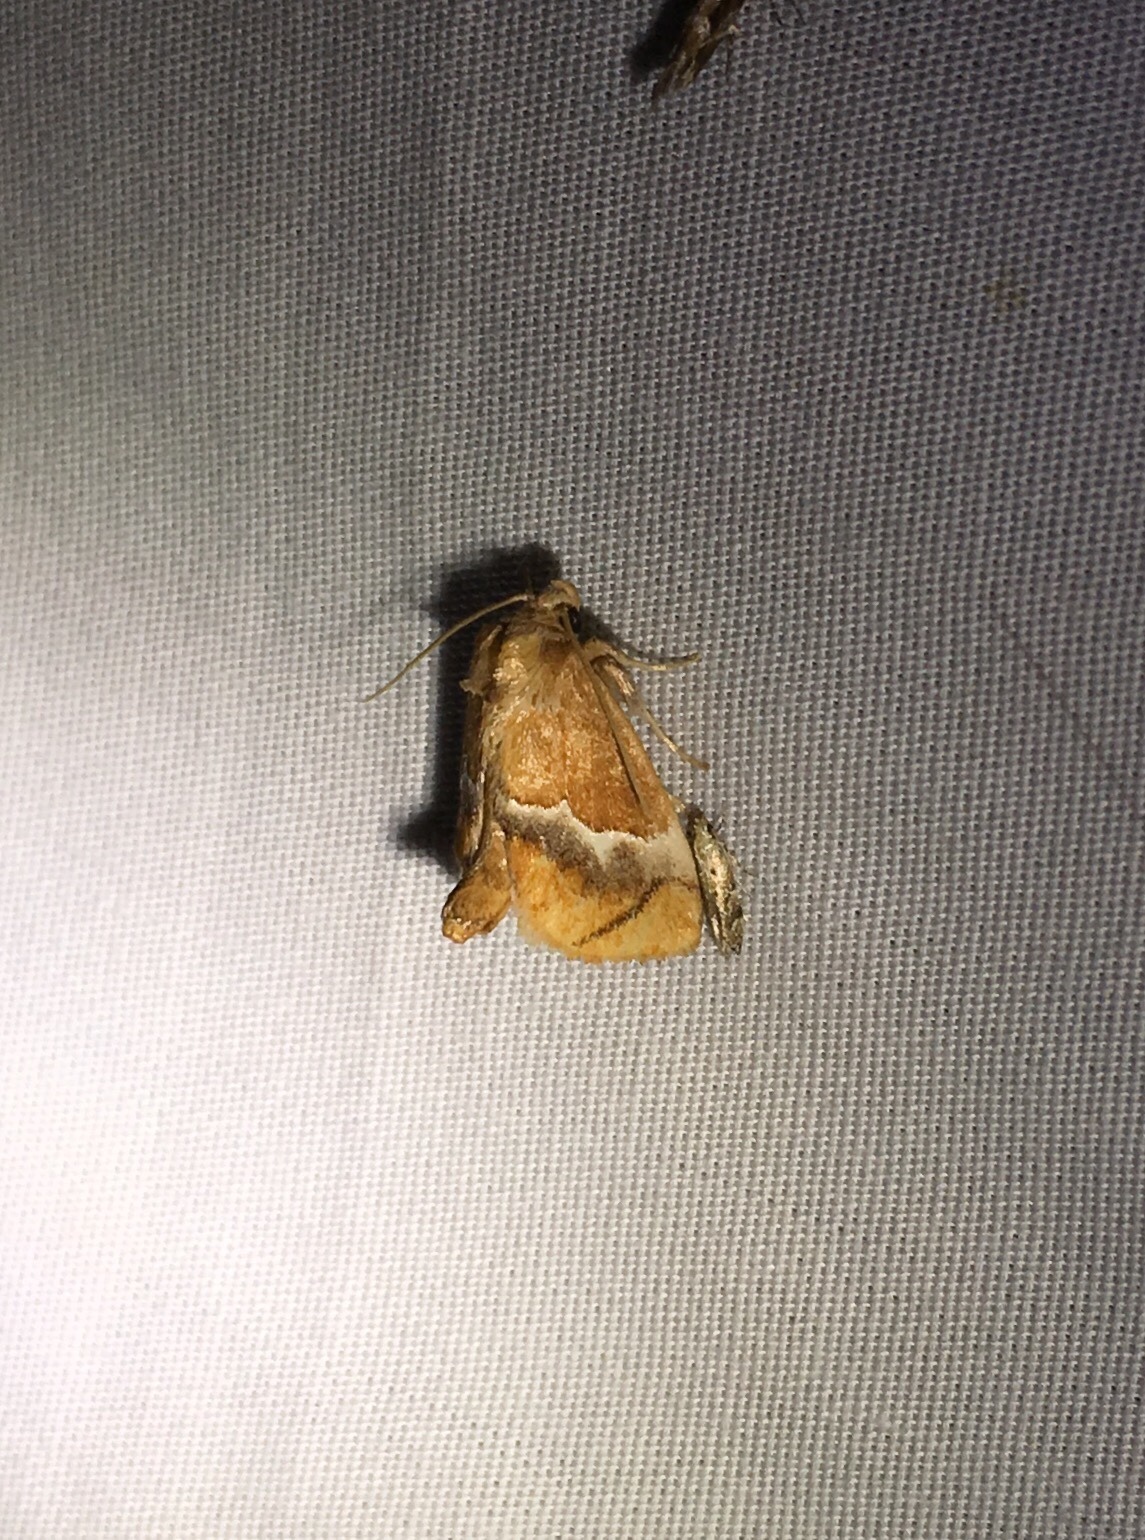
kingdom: Animalia
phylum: Arthropoda
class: Insecta
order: Lepidoptera
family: Limacodidae
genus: Lithacodes
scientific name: Lithacodes fasciola
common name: Yellow-shouldered slug moth
